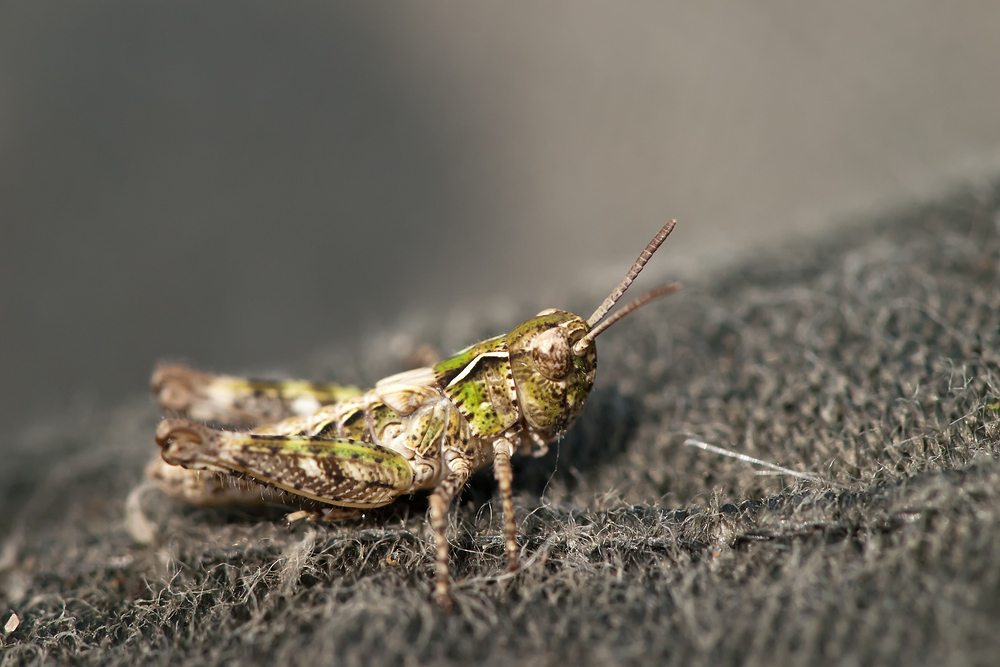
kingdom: Animalia
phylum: Arthropoda
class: Insecta
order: Orthoptera
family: Acrididae
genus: Myrmeleotettix
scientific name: Myrmeleotettix maculatus
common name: Mottled grasshopper
